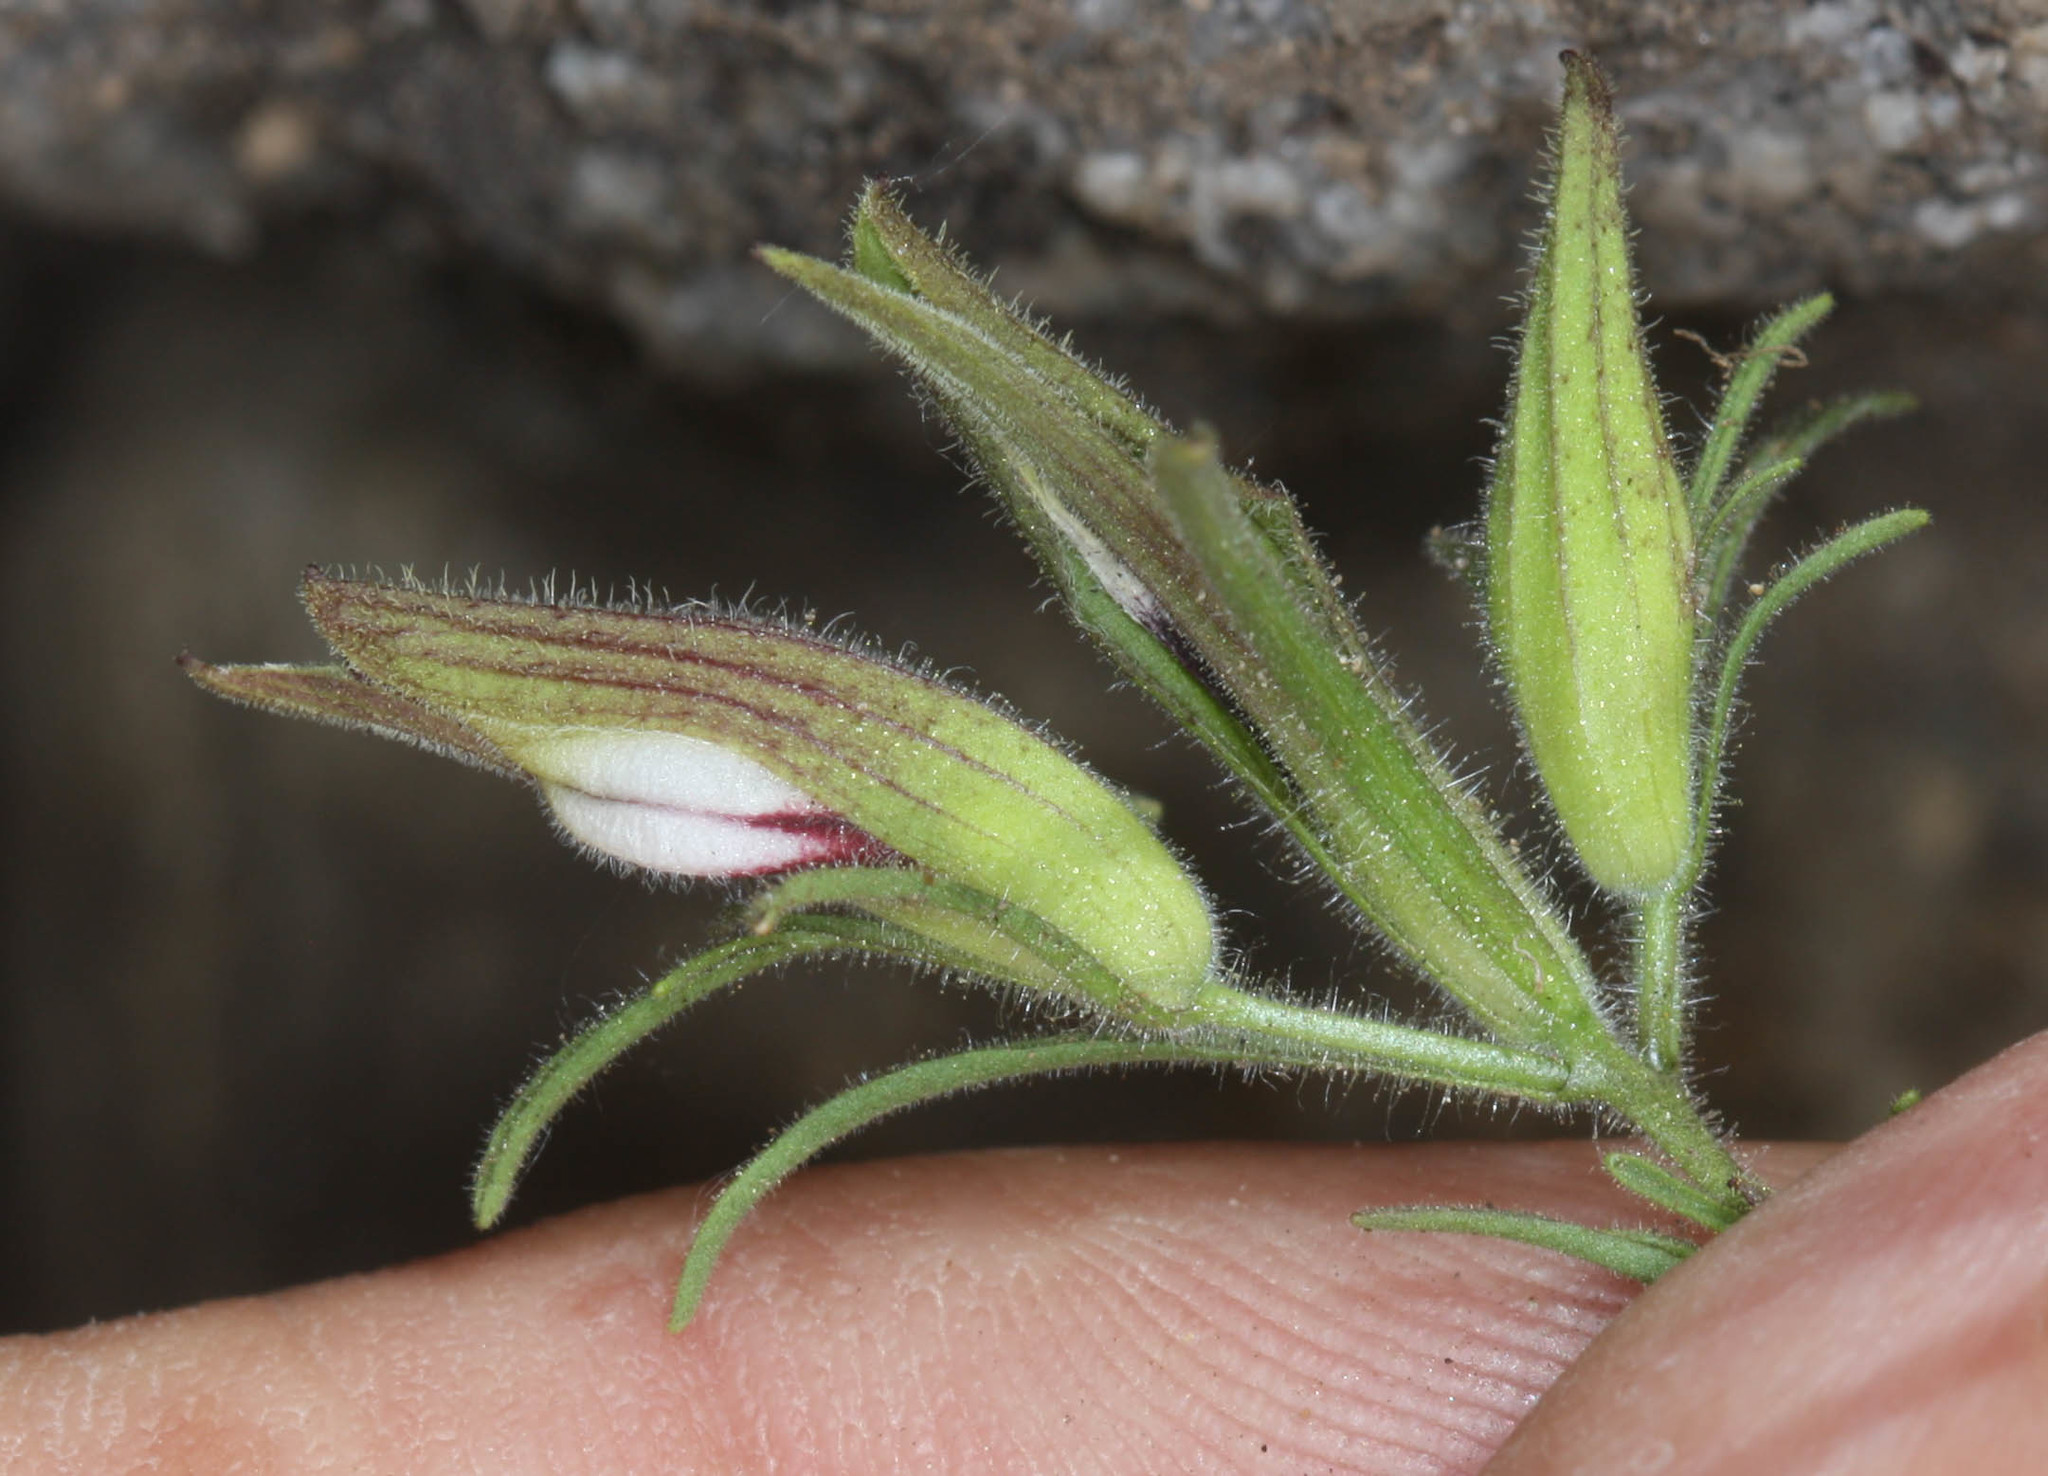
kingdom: Plantae
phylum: Tracheophyta
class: Magnoliopsida
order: Lamiales
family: Orobanchaceae
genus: Cordylanthus
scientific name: Cordylanthus tenuis
